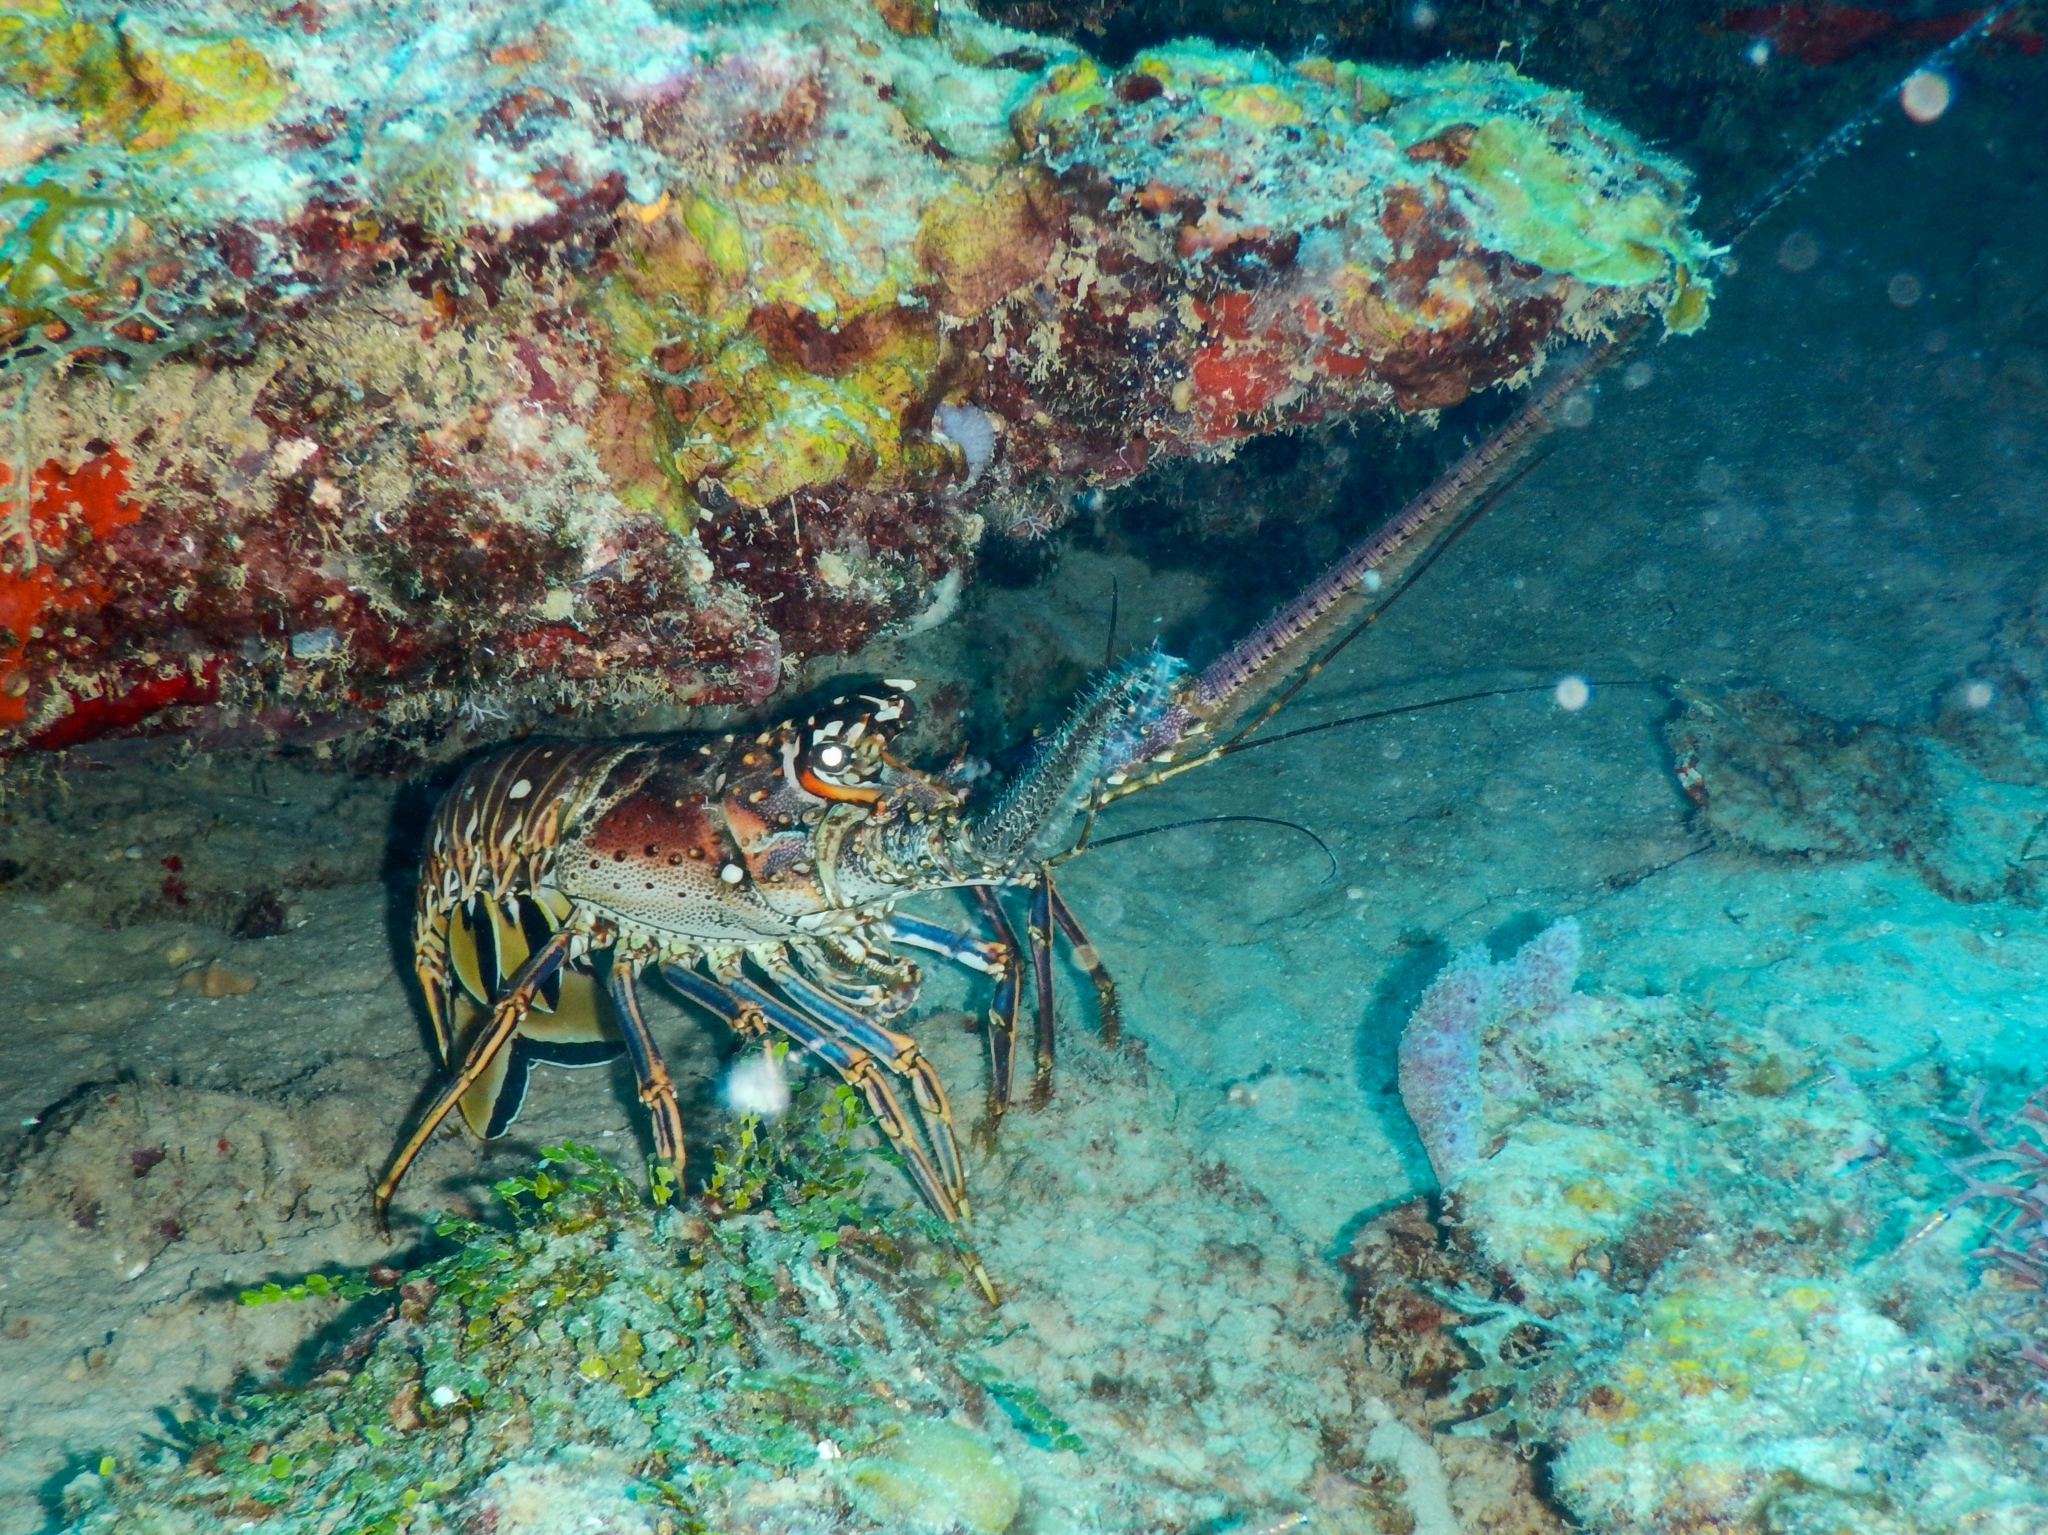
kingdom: Animalia
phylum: Arthropoda
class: Malacostraca
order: Decapoda
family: Palinuridae
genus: Panulirus
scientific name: Panulirus argus
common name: Caribbean spiny lobster
